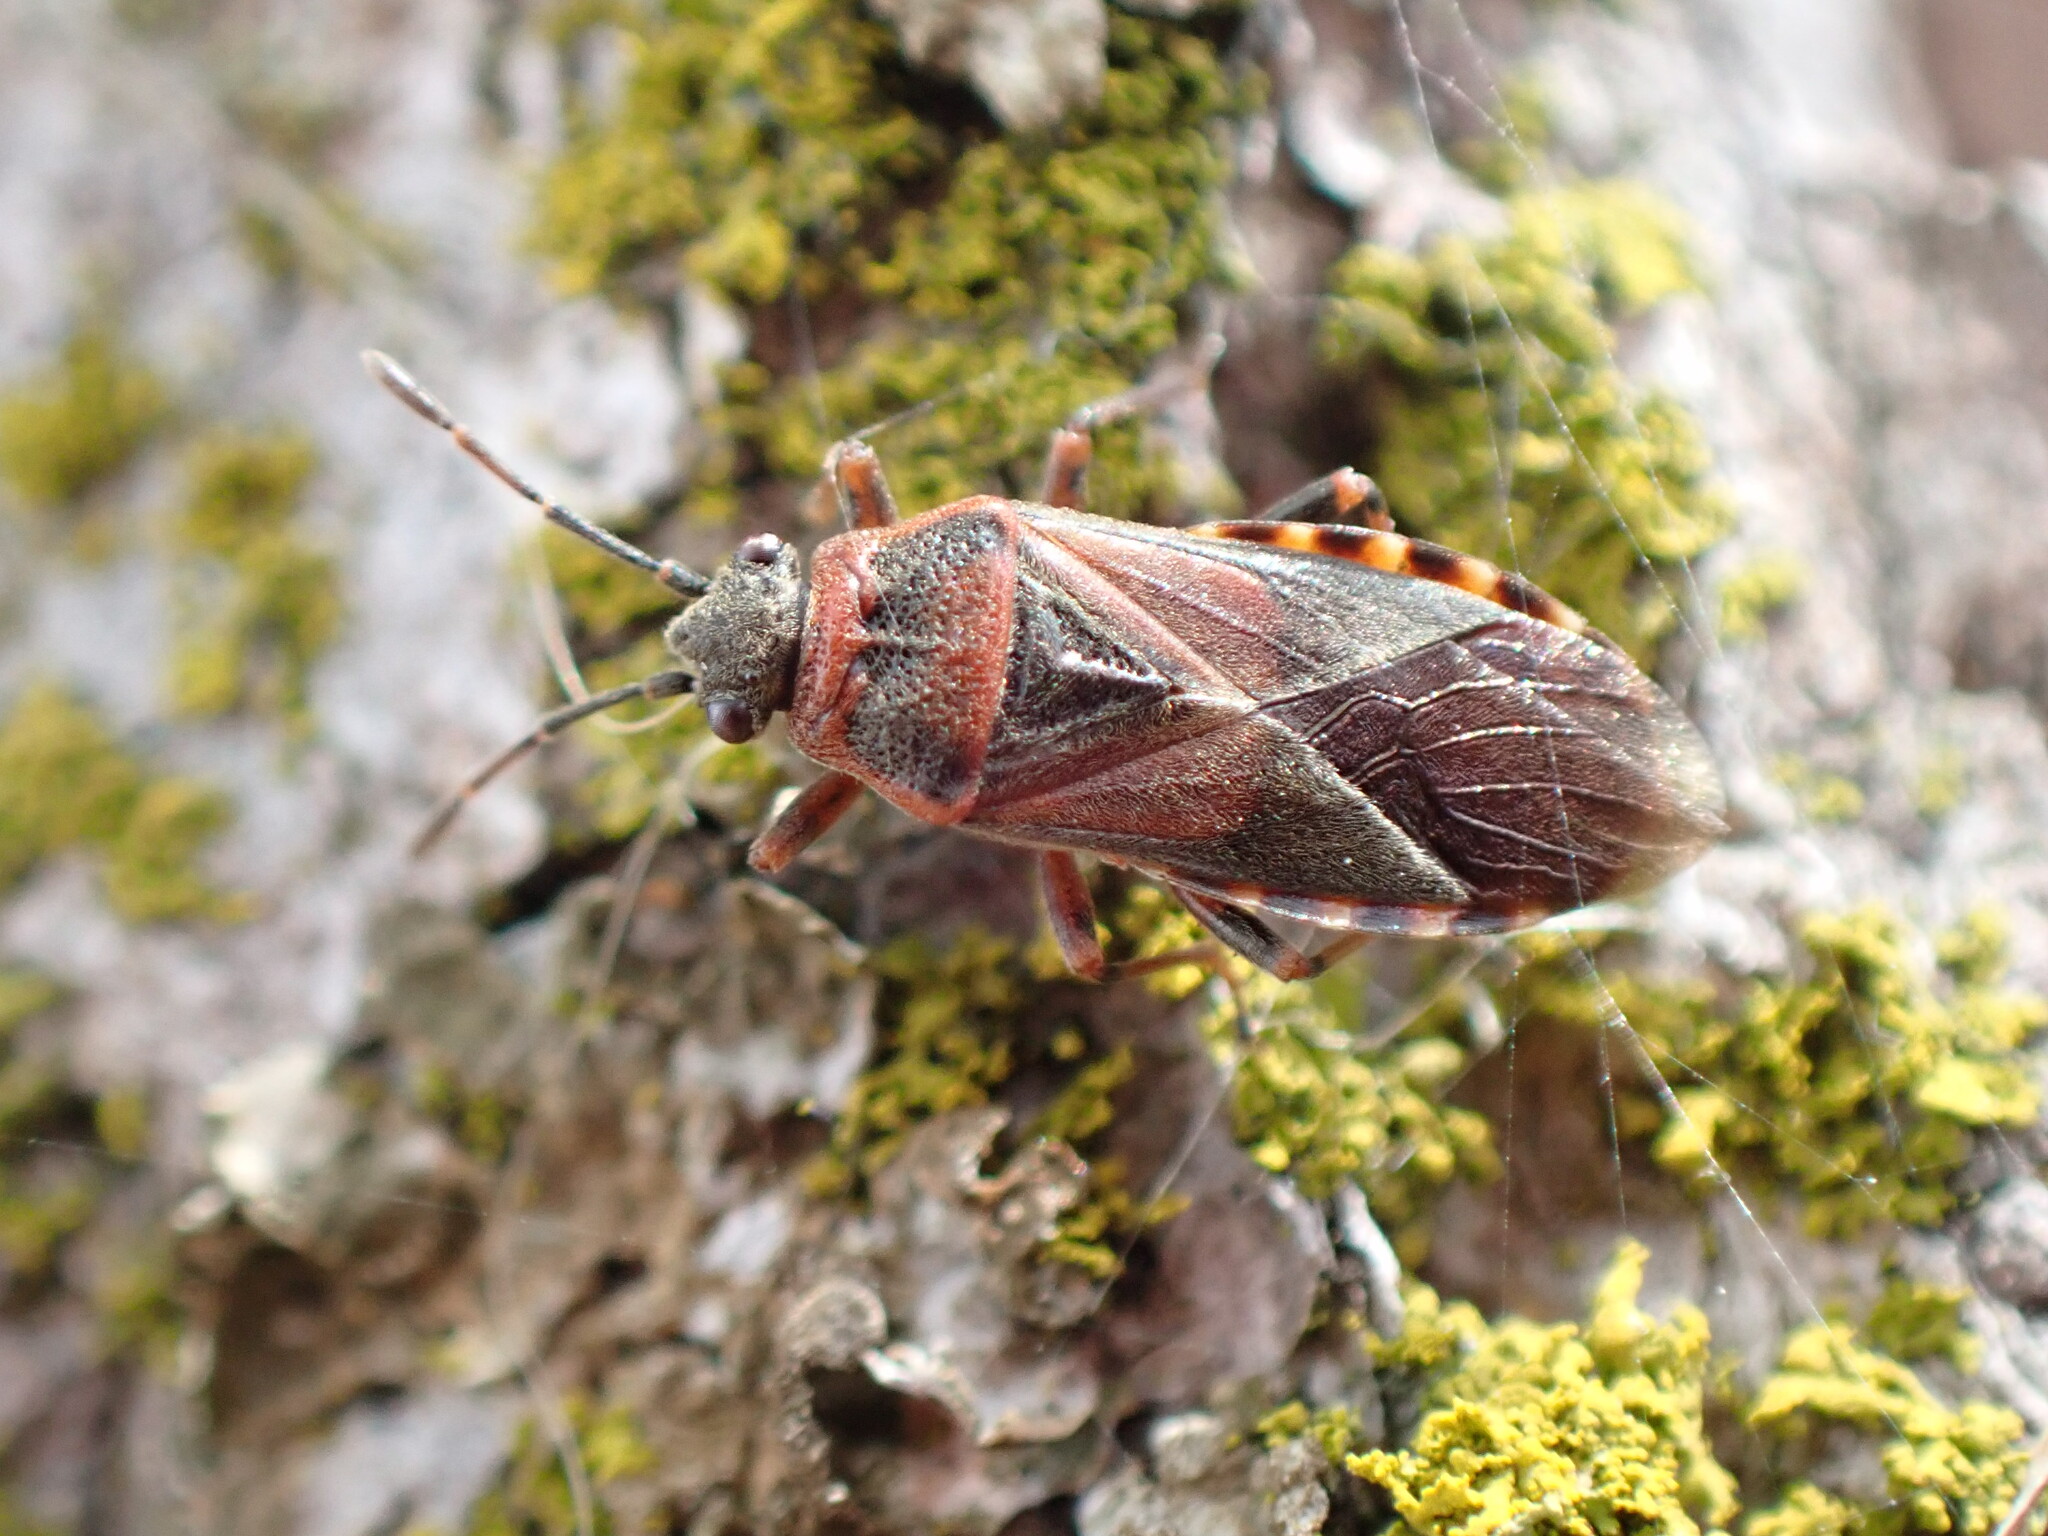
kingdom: Animalia
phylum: Arthropoda
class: Insecta
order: Hemiptera
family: Lygaeidae
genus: Arocatus
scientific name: Arocatus melanocephalus
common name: Lygaeid bug
